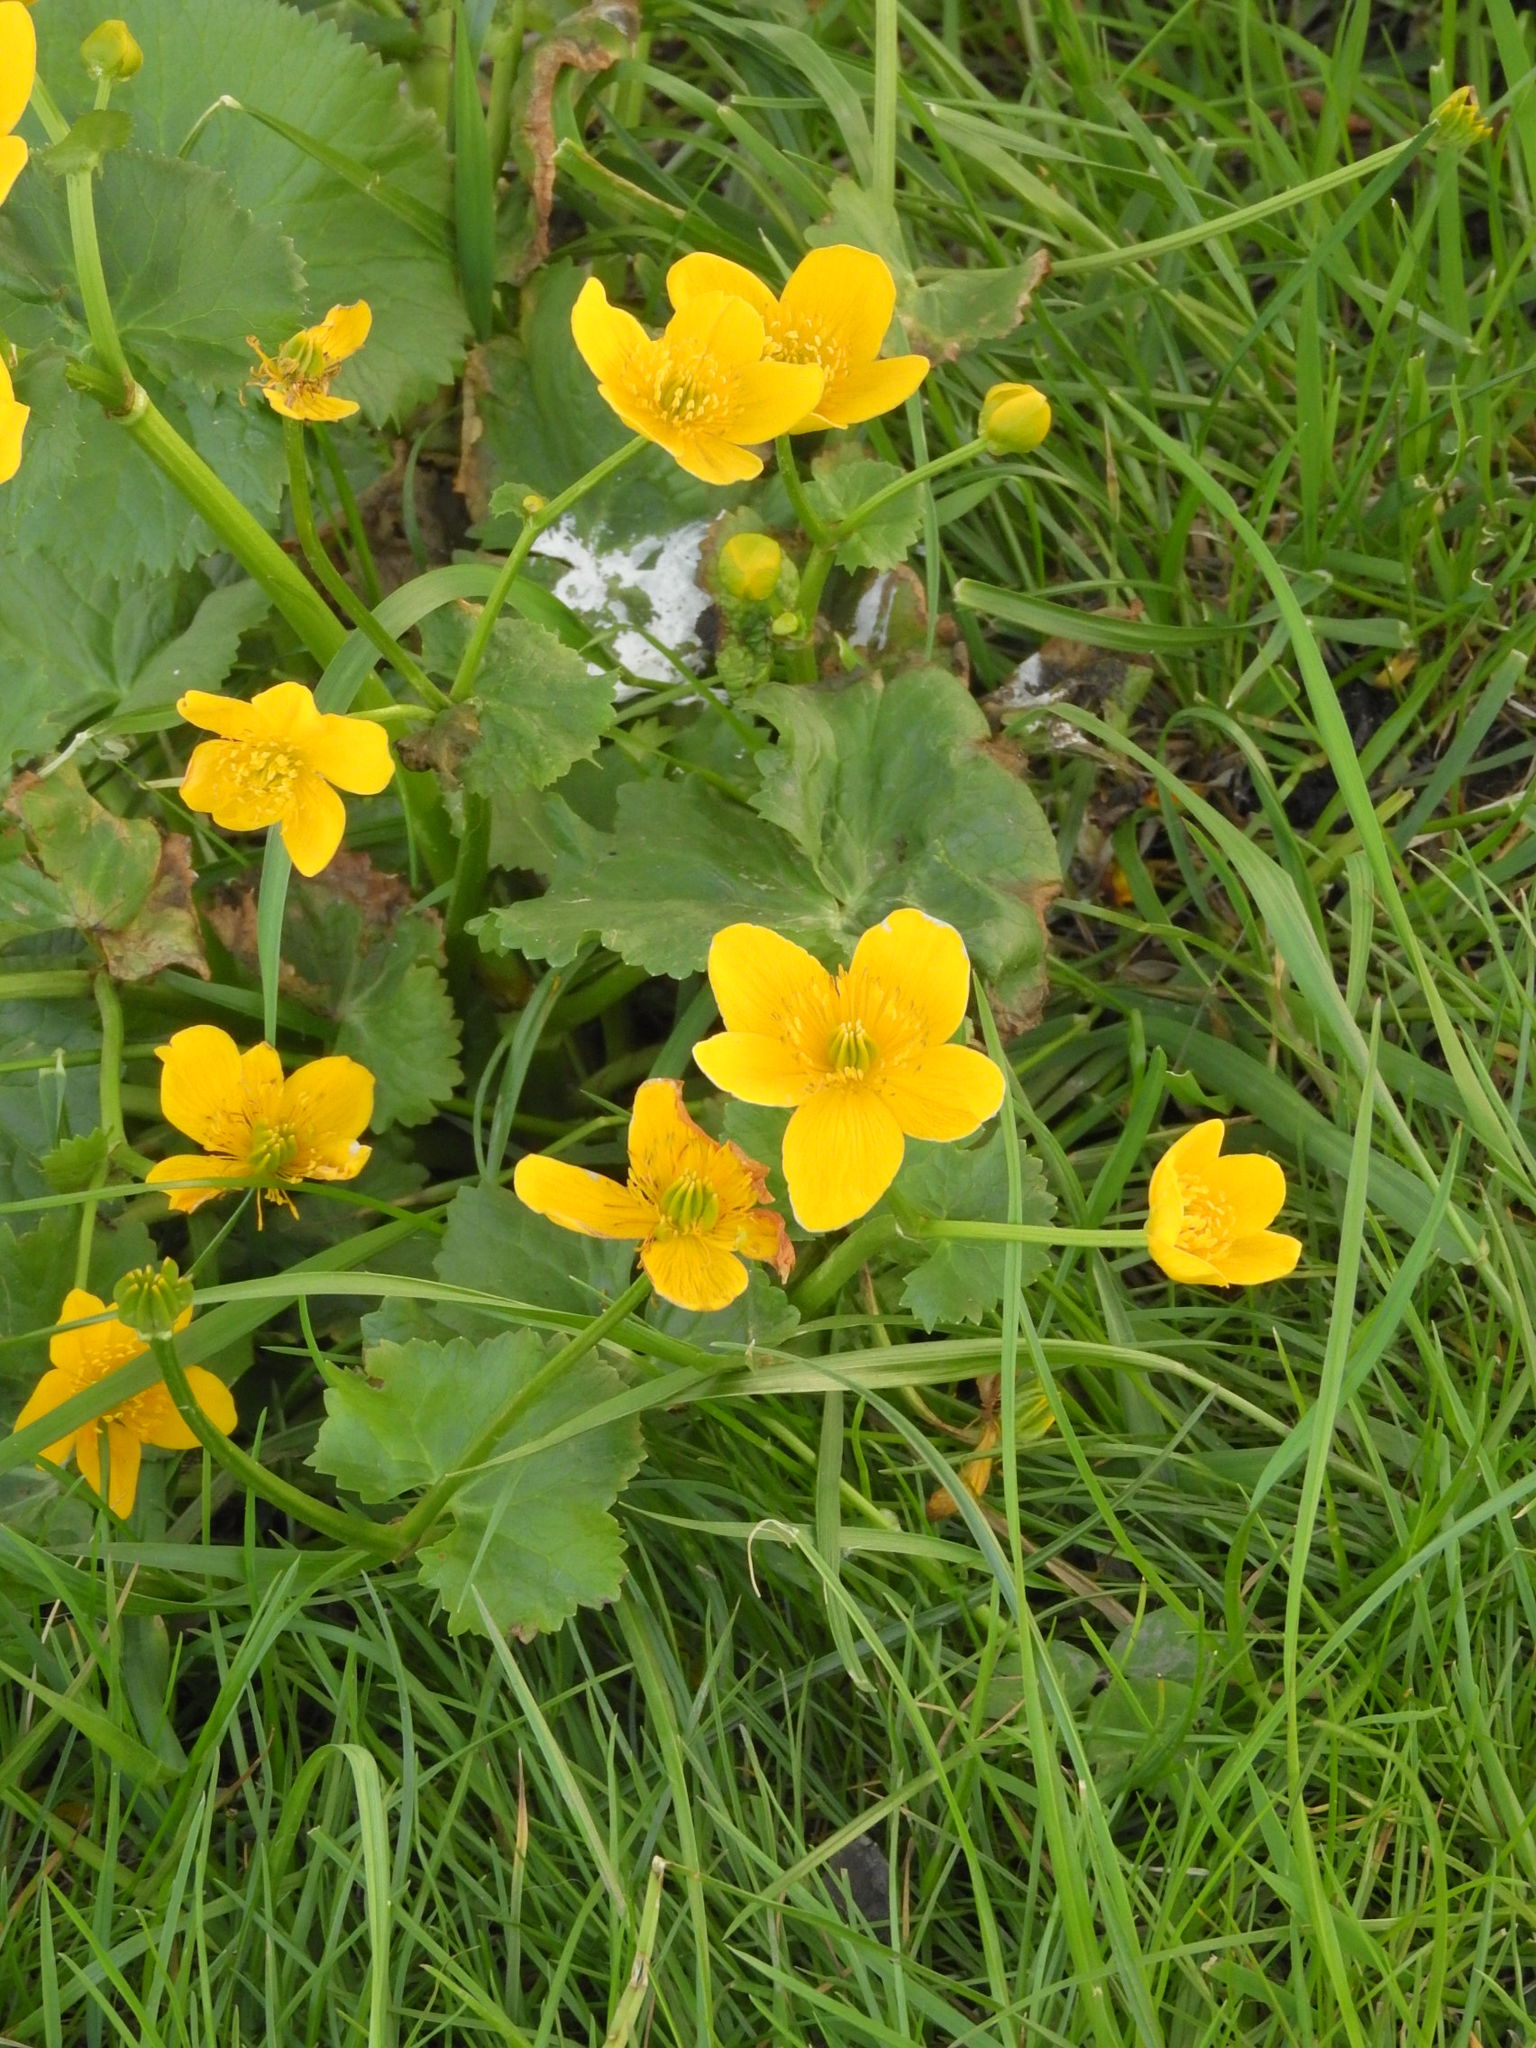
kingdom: Plantae
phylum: Tracheophyta
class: Magnoliopsida
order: Ranunculales
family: Ranunculaceae
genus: Caltha
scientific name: Caltha palustris
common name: Marsh marigold
